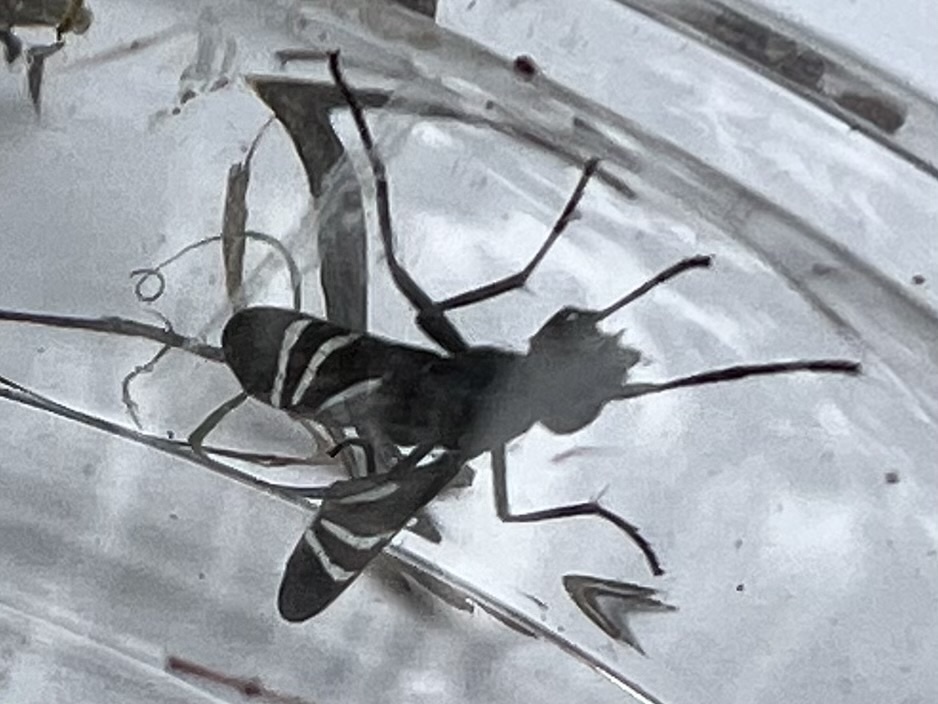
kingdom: Animalia
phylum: Arthropoda
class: Insecta
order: Diptera
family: Ulidiidae
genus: Tritoxa
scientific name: Tritoxa flexa
